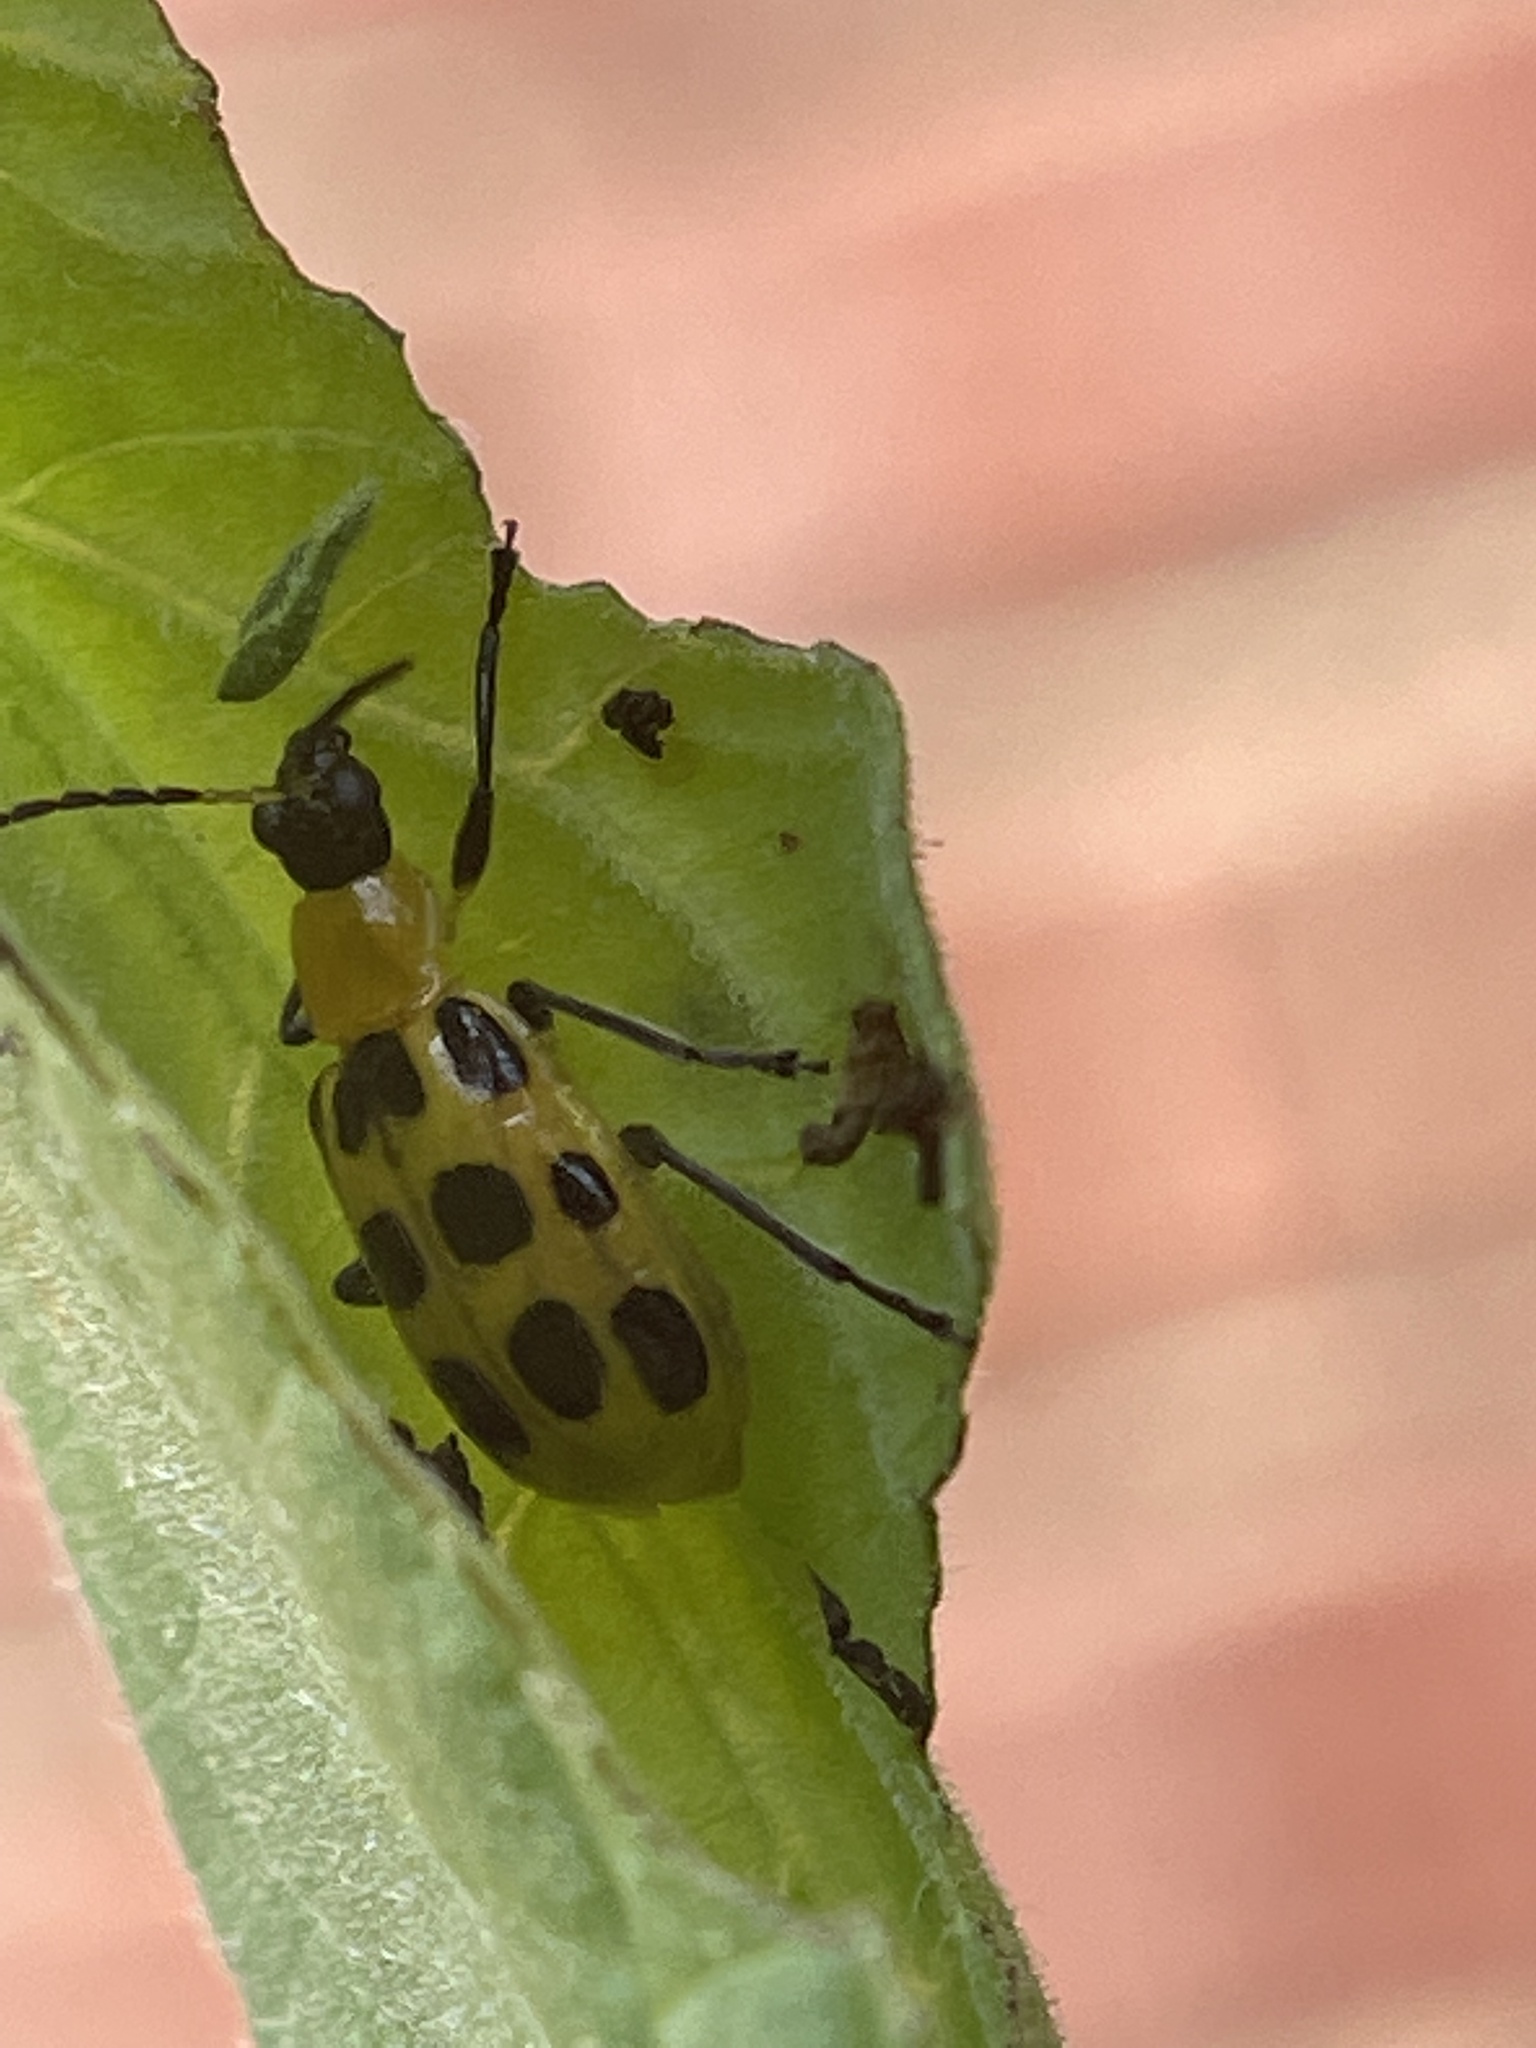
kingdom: Animalia
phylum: Arthropoda
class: Insecta
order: Coleoptera
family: Chrysomelidae
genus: Diabrotica
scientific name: Diabrotica undecimpunctata
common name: Spotted cucumber beetle
